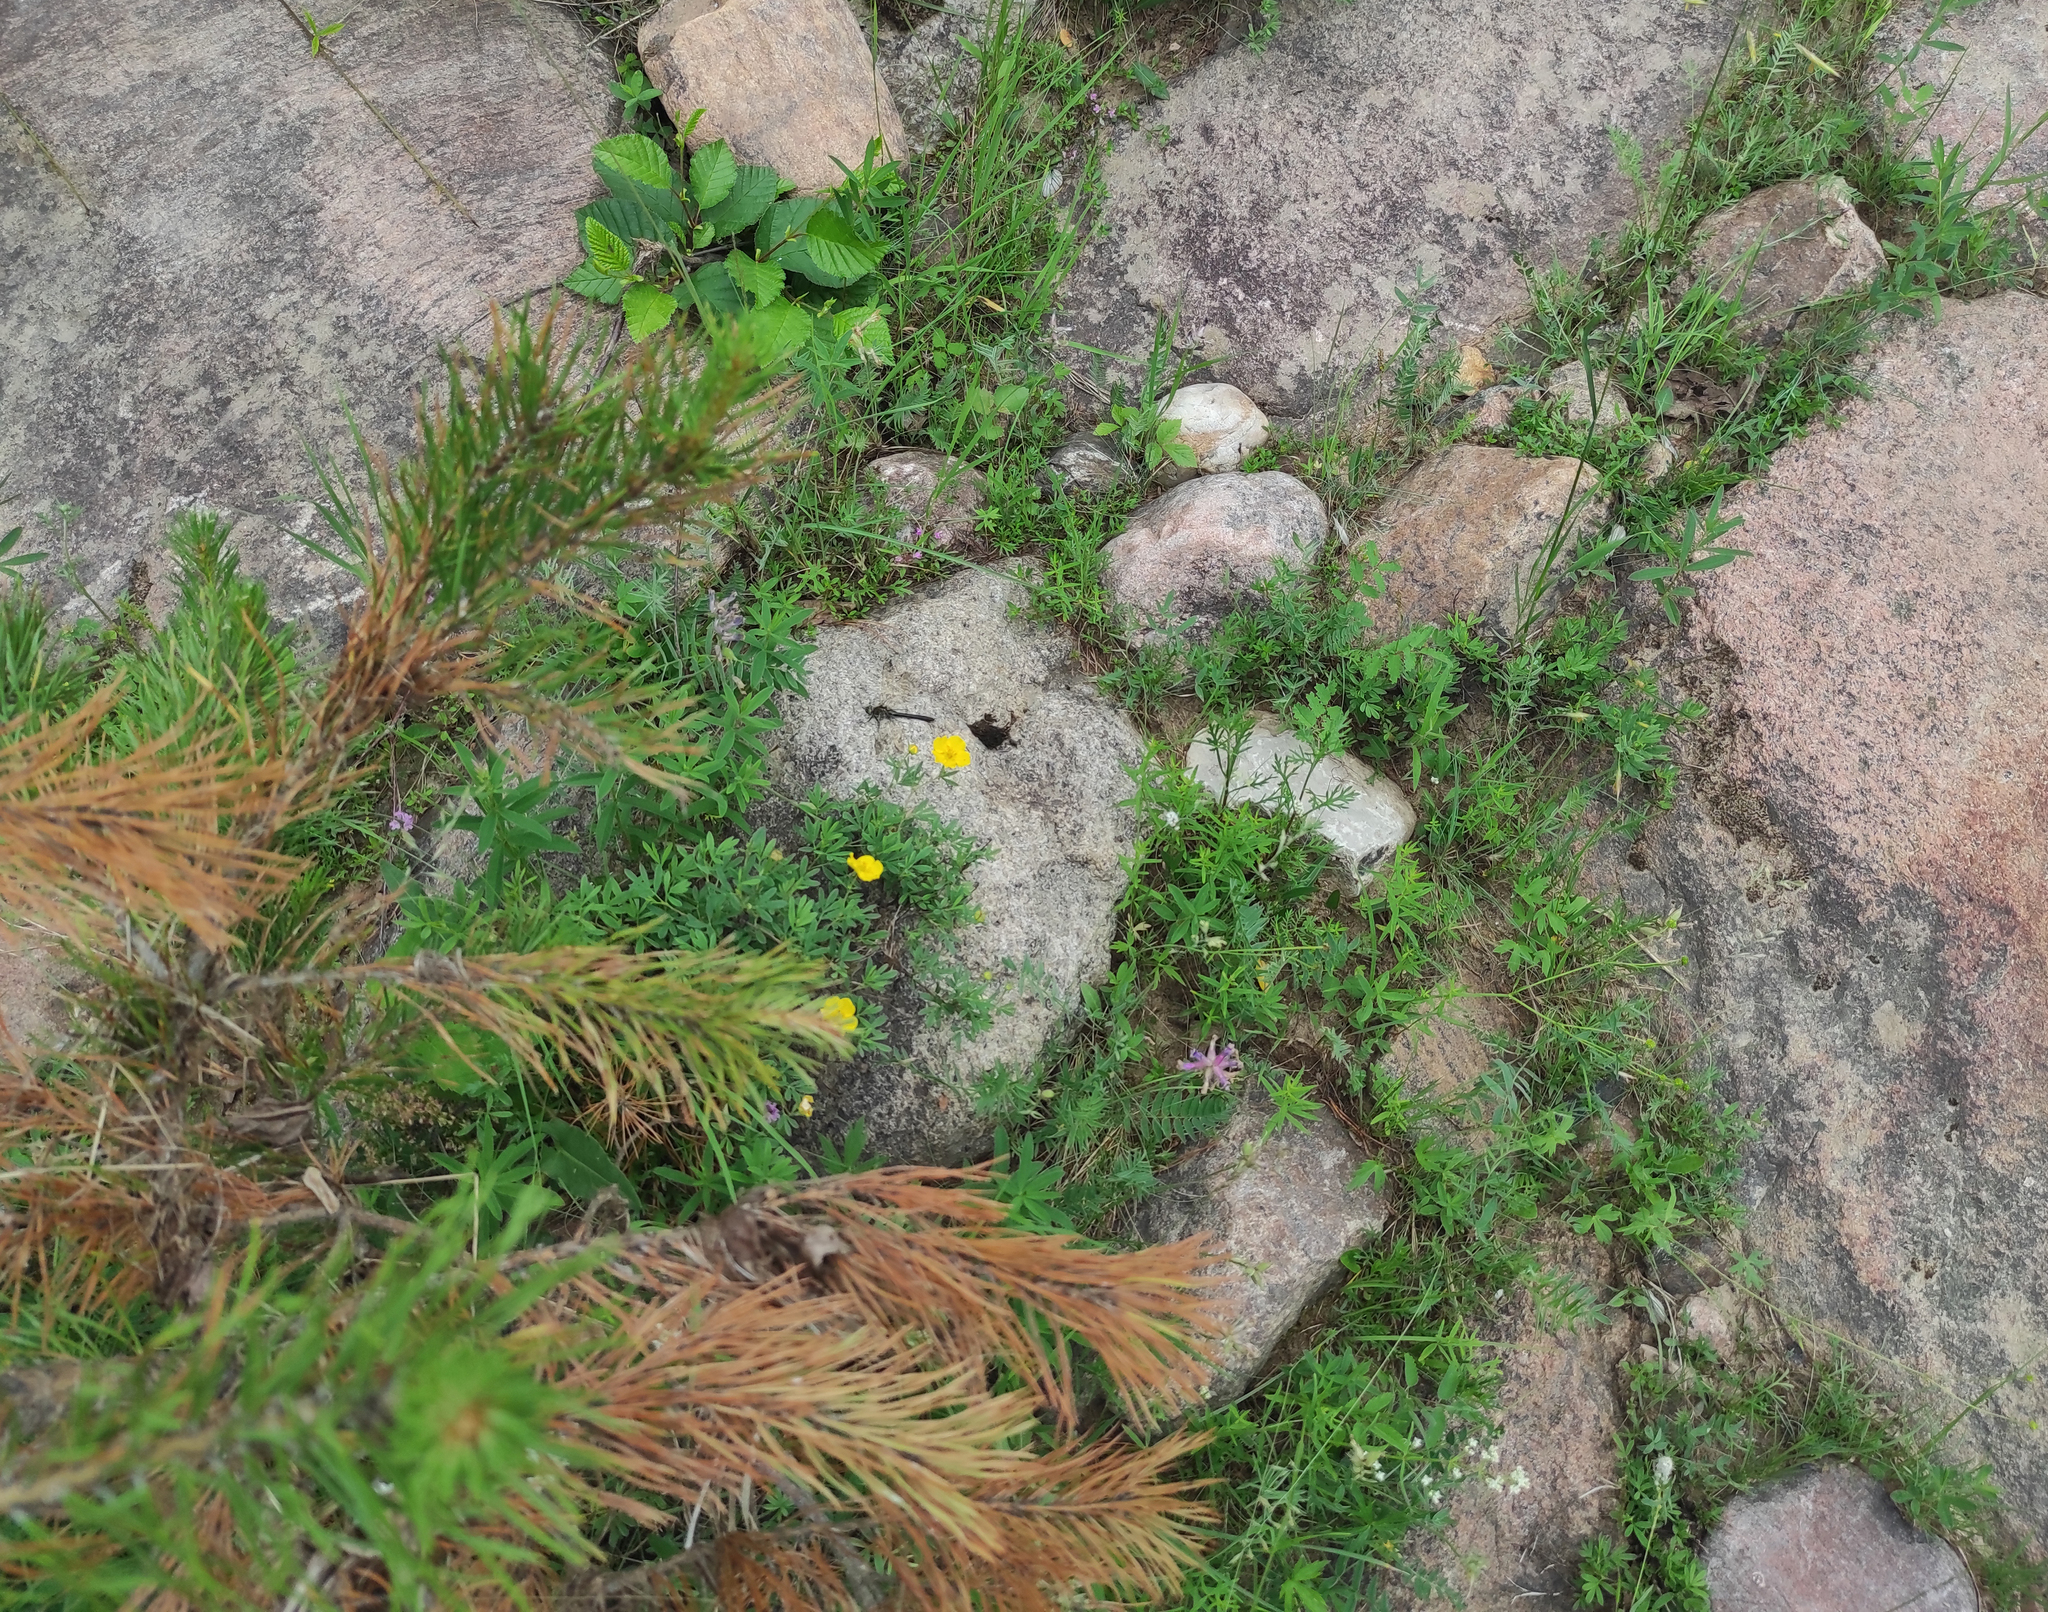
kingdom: Plantae
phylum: Tracheophyta
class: Magnoliopsida
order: Rosales
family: Rosaceae
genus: Dasiphora
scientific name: Dasiphora fruticosa
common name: Shrubby cinquefoil
